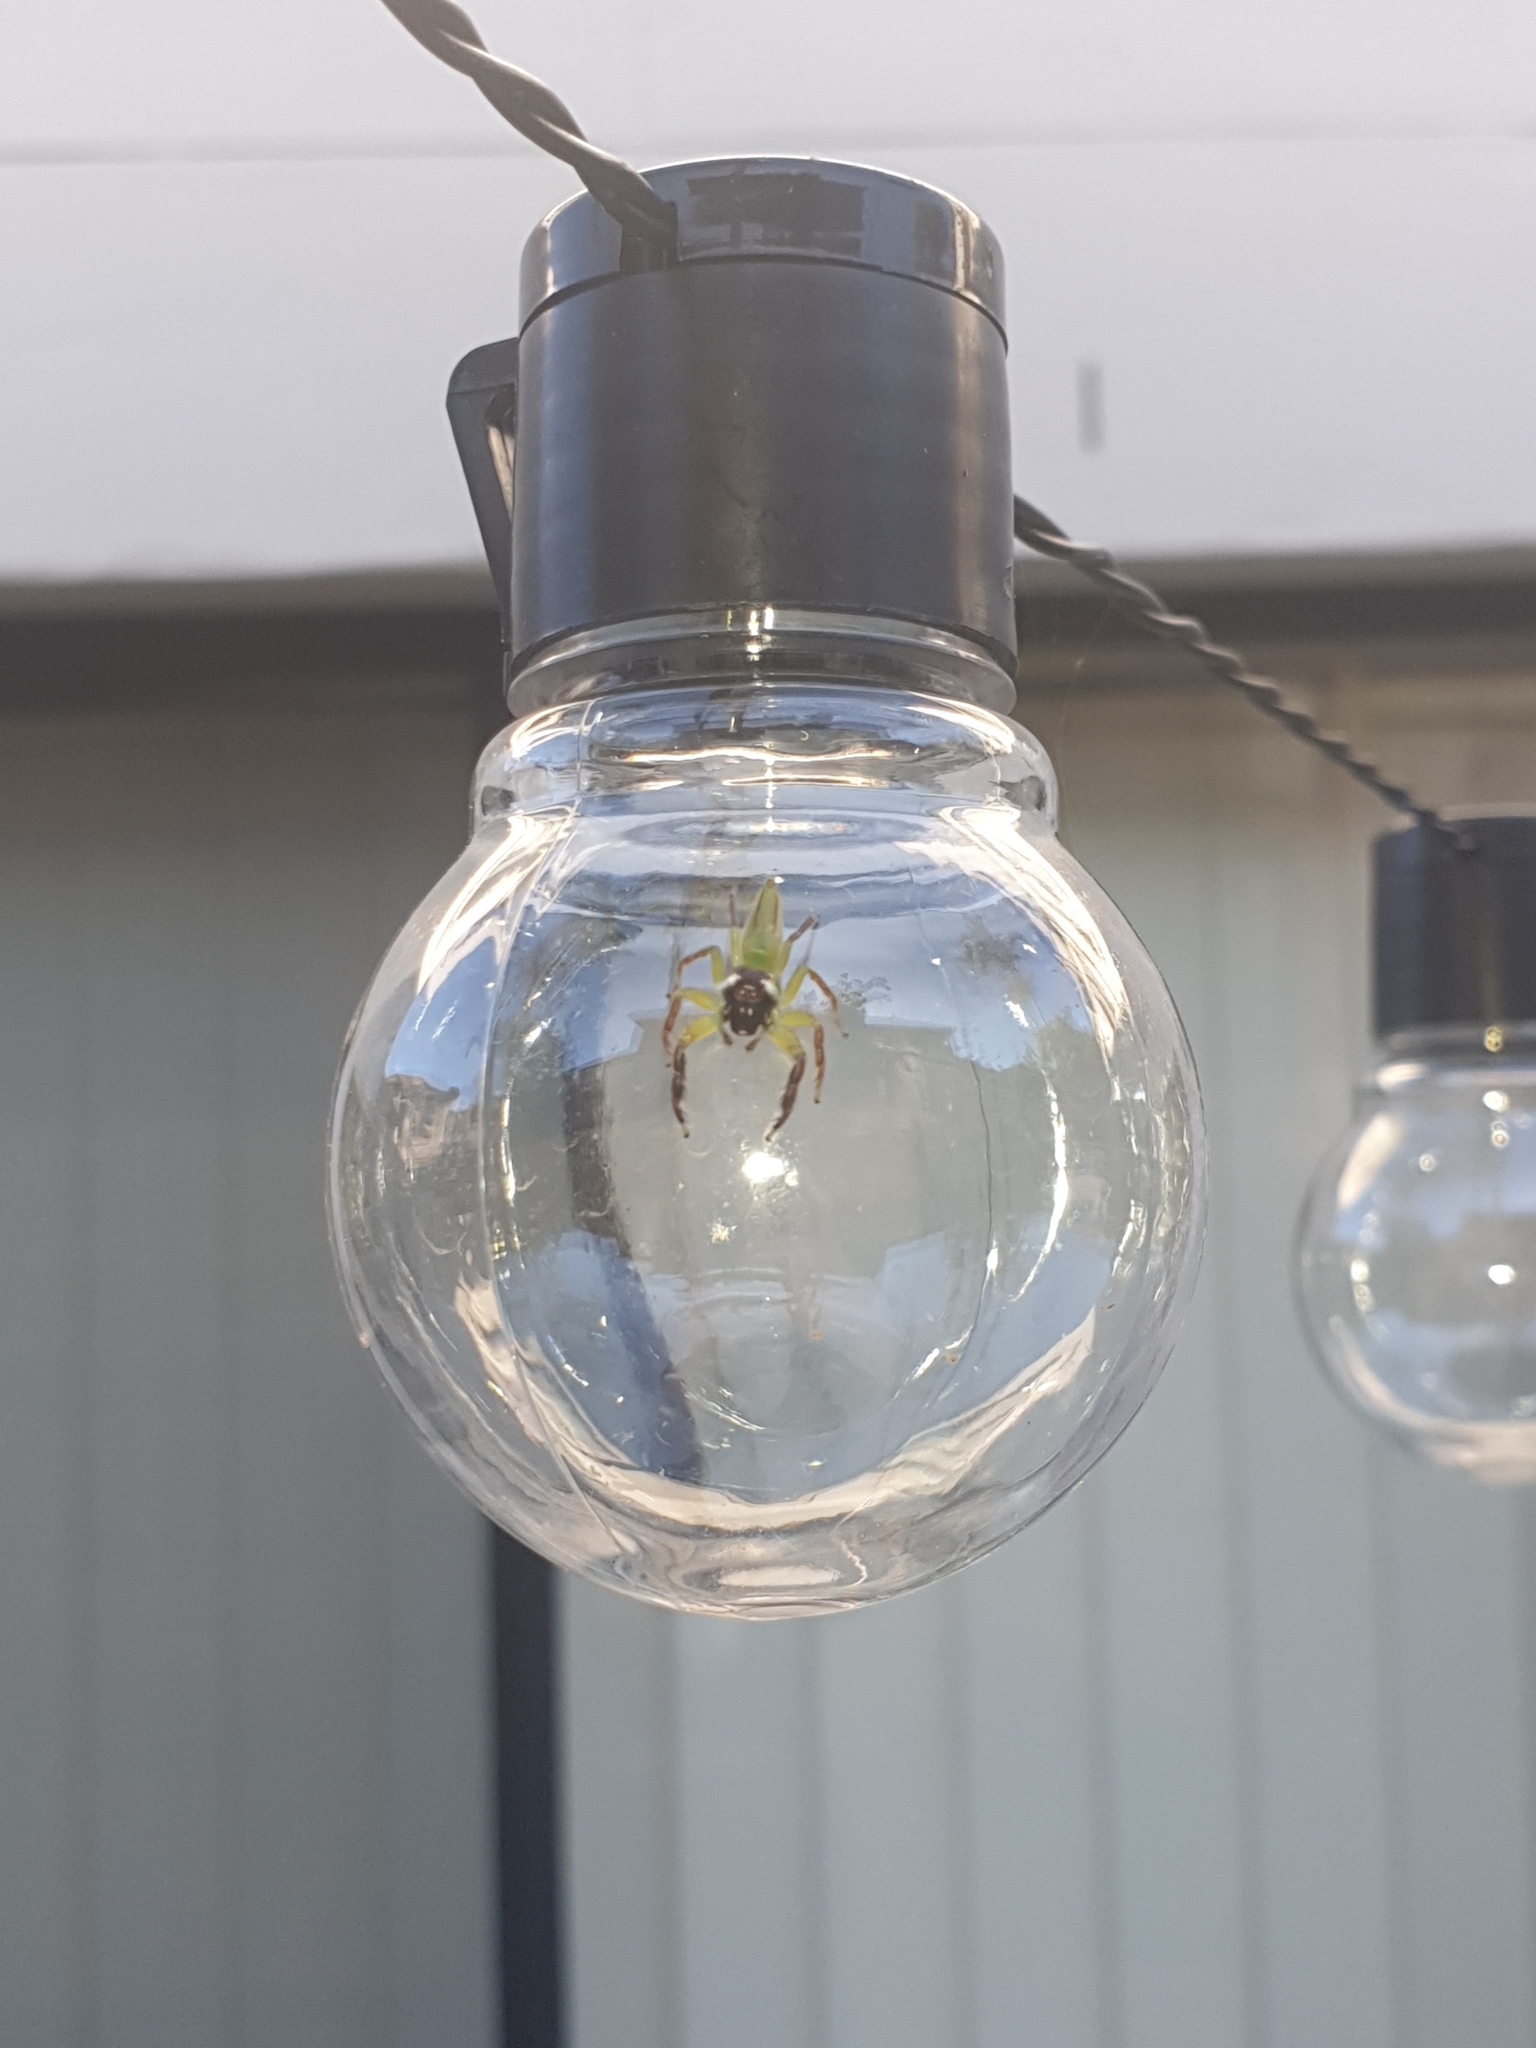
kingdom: Animalia
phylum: Arthropoda
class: Arachnida
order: Araneae
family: Salticidae
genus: Mopsus
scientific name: Mopsus mormon
